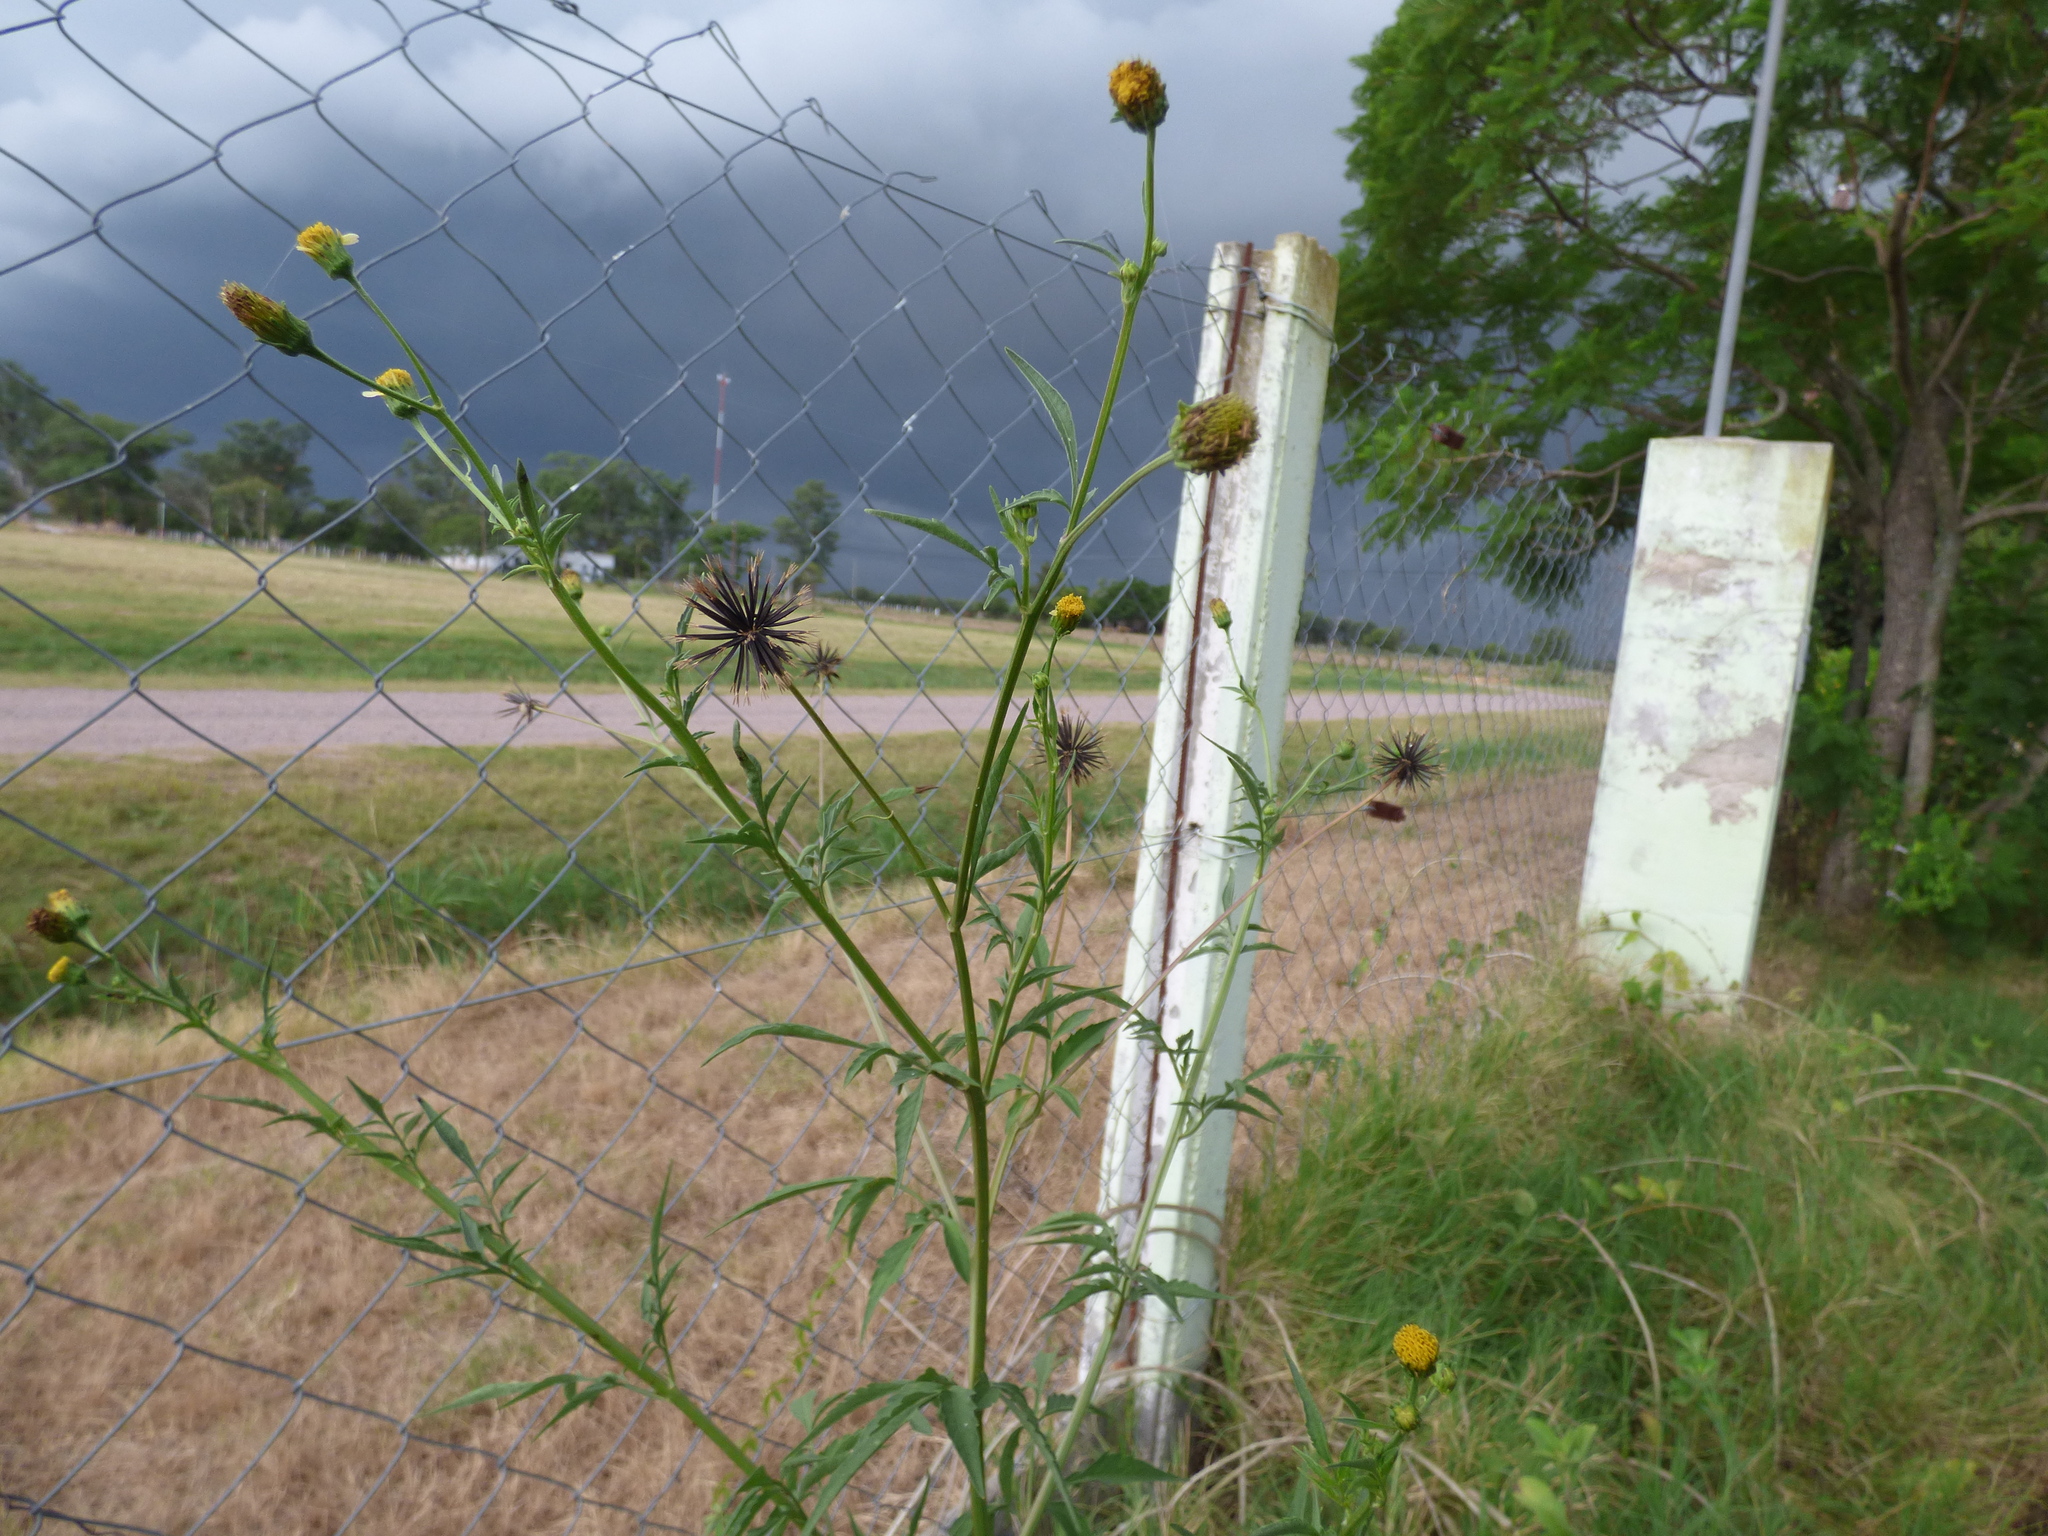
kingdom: Plantae
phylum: Tracheophyta
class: Magnoliopsida
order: Asterales
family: Asteraceae
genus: Bidens
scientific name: Bidens subalternans
